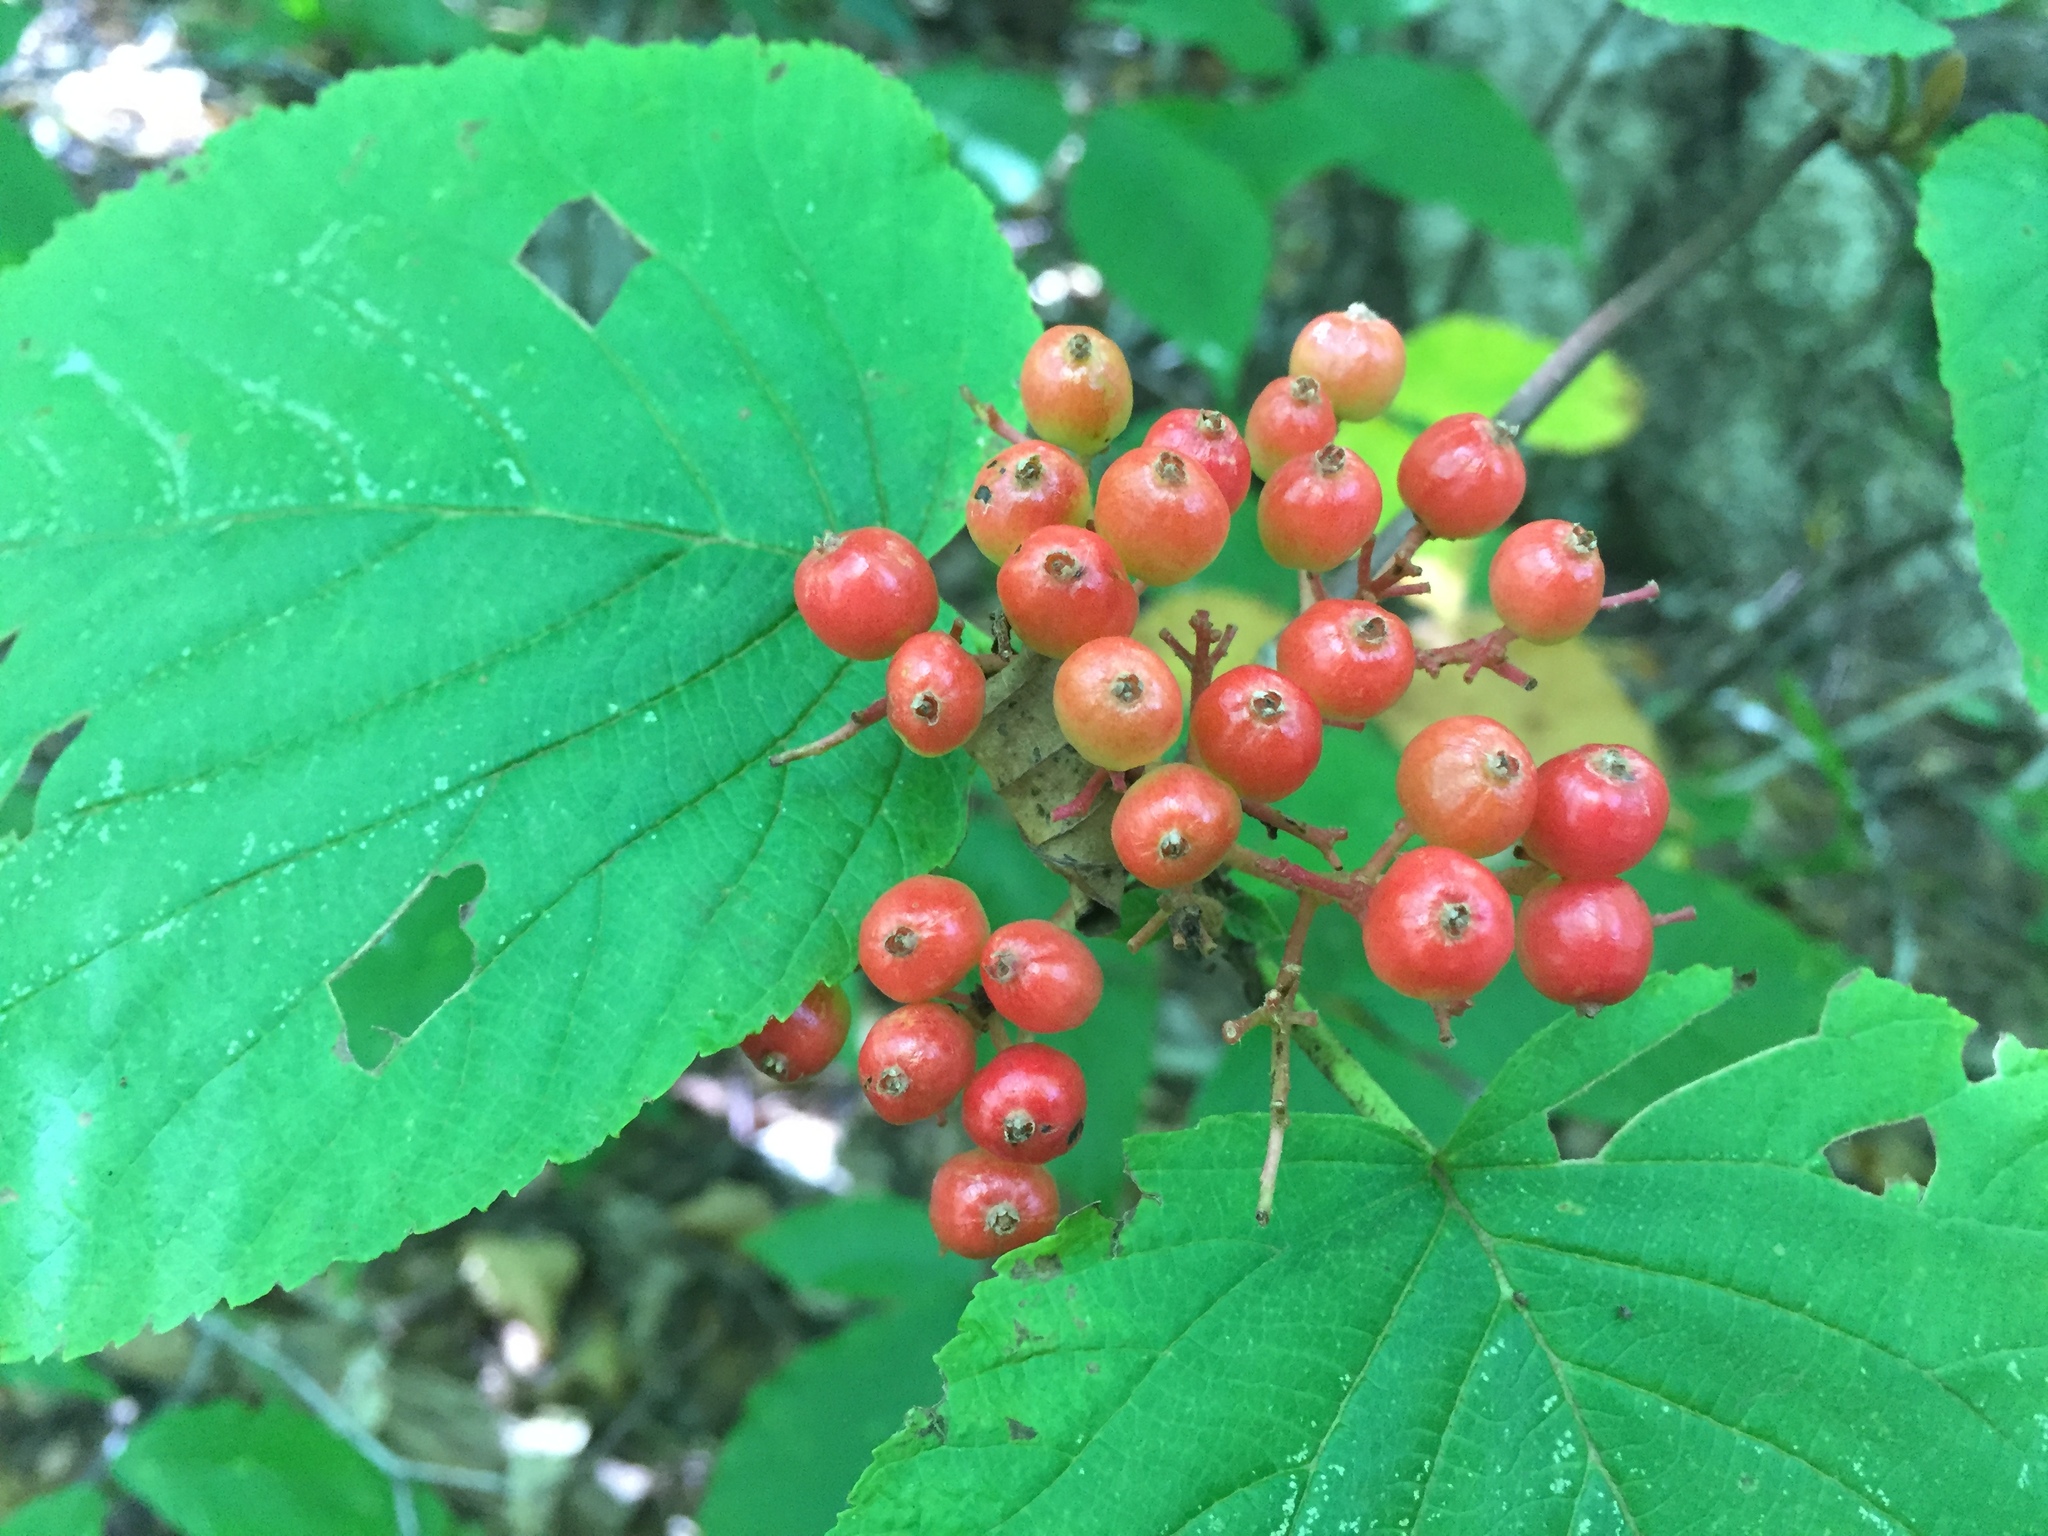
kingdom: Plantae
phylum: Tracheophyta
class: Magnoliopsida
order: Dipsacales
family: Viburnaceae
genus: Viburnum
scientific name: Viburnum lantanoides
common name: Hobblebush
